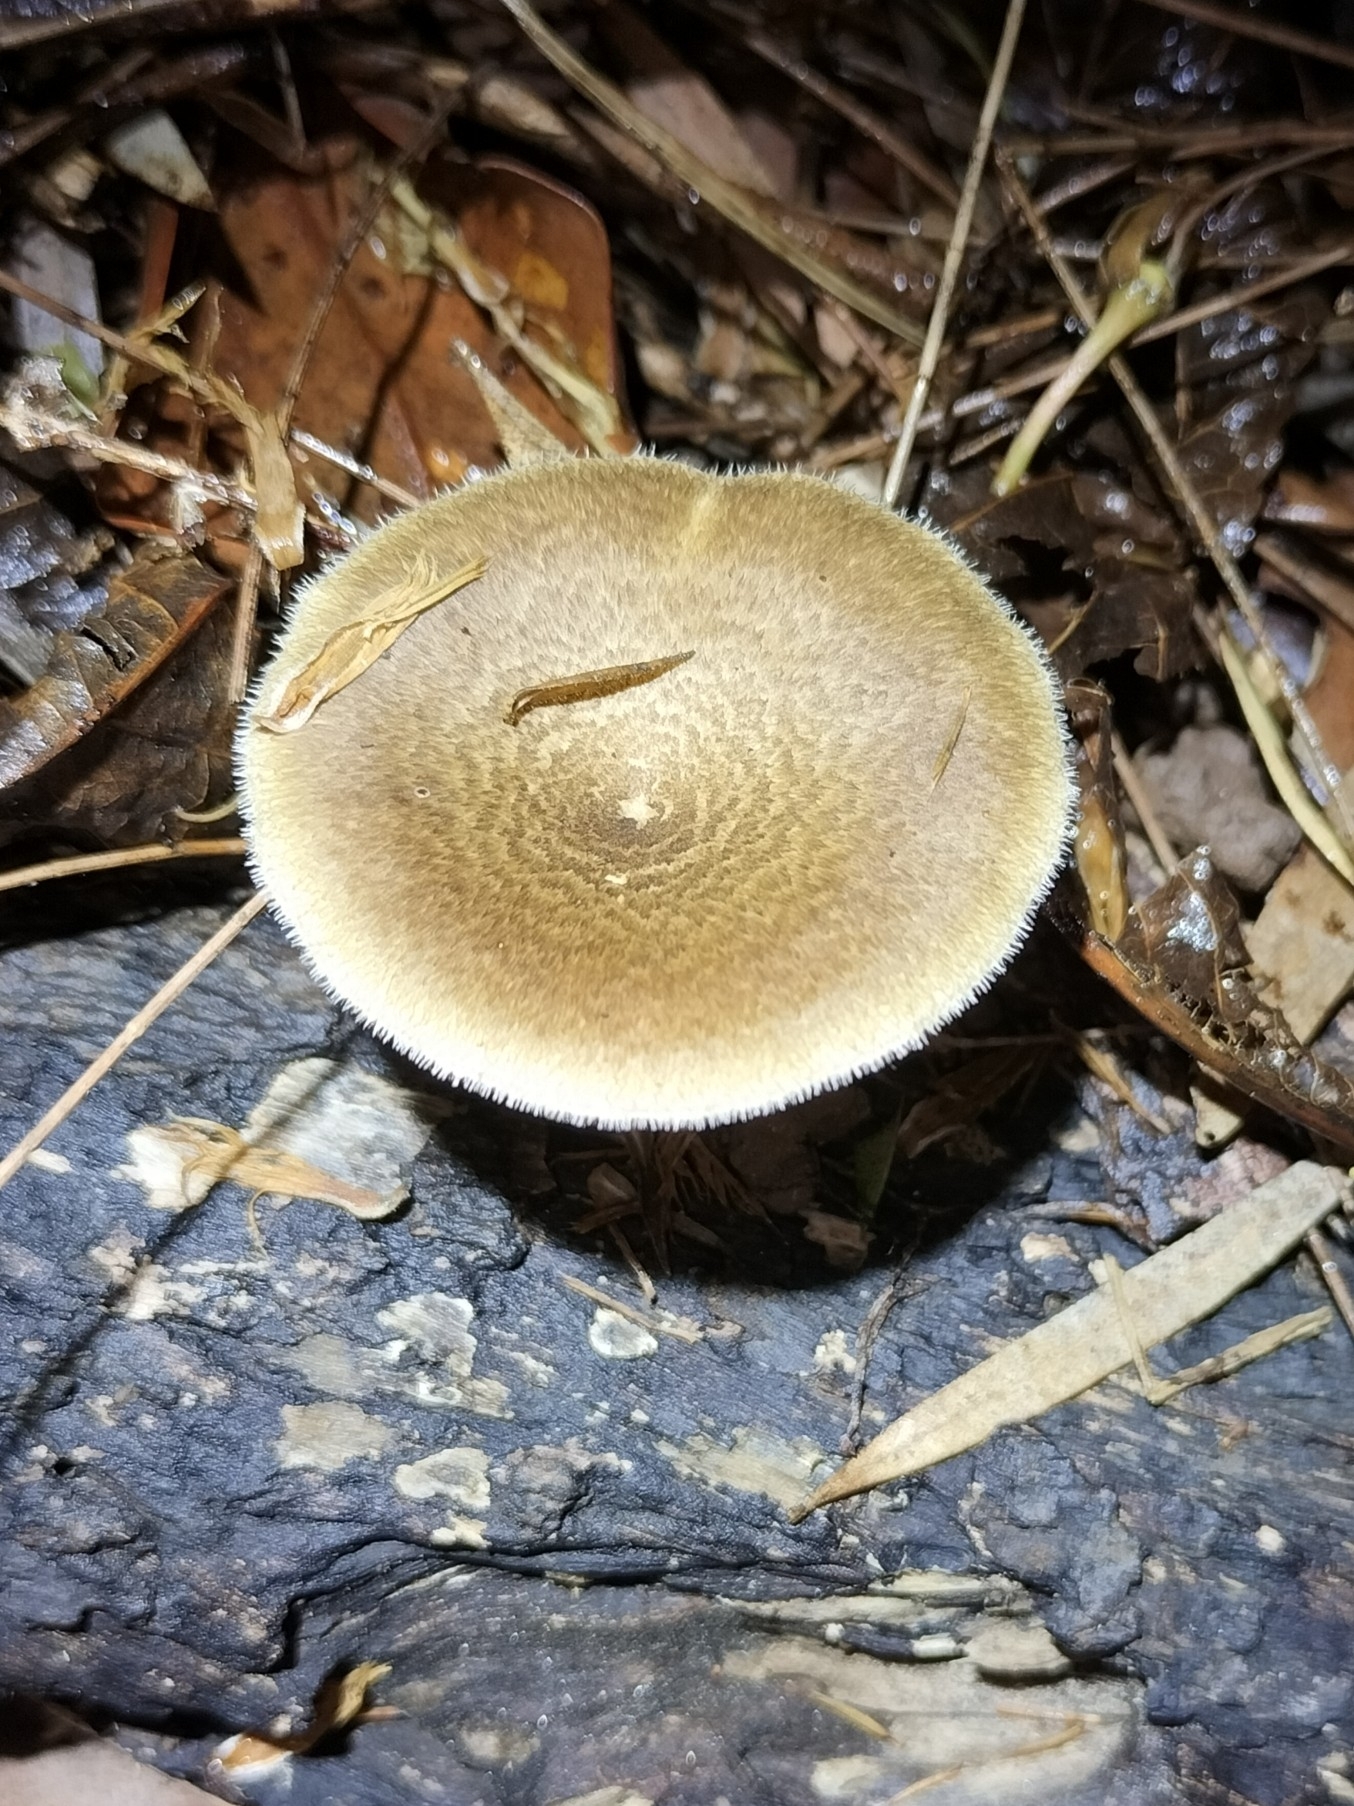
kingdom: Fungi
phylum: Basidiomycota
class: Agaricomycetes
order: Polyporales
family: Polyporaceae
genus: Lentinus
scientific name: Lentinus arcularius
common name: Spring polypore
